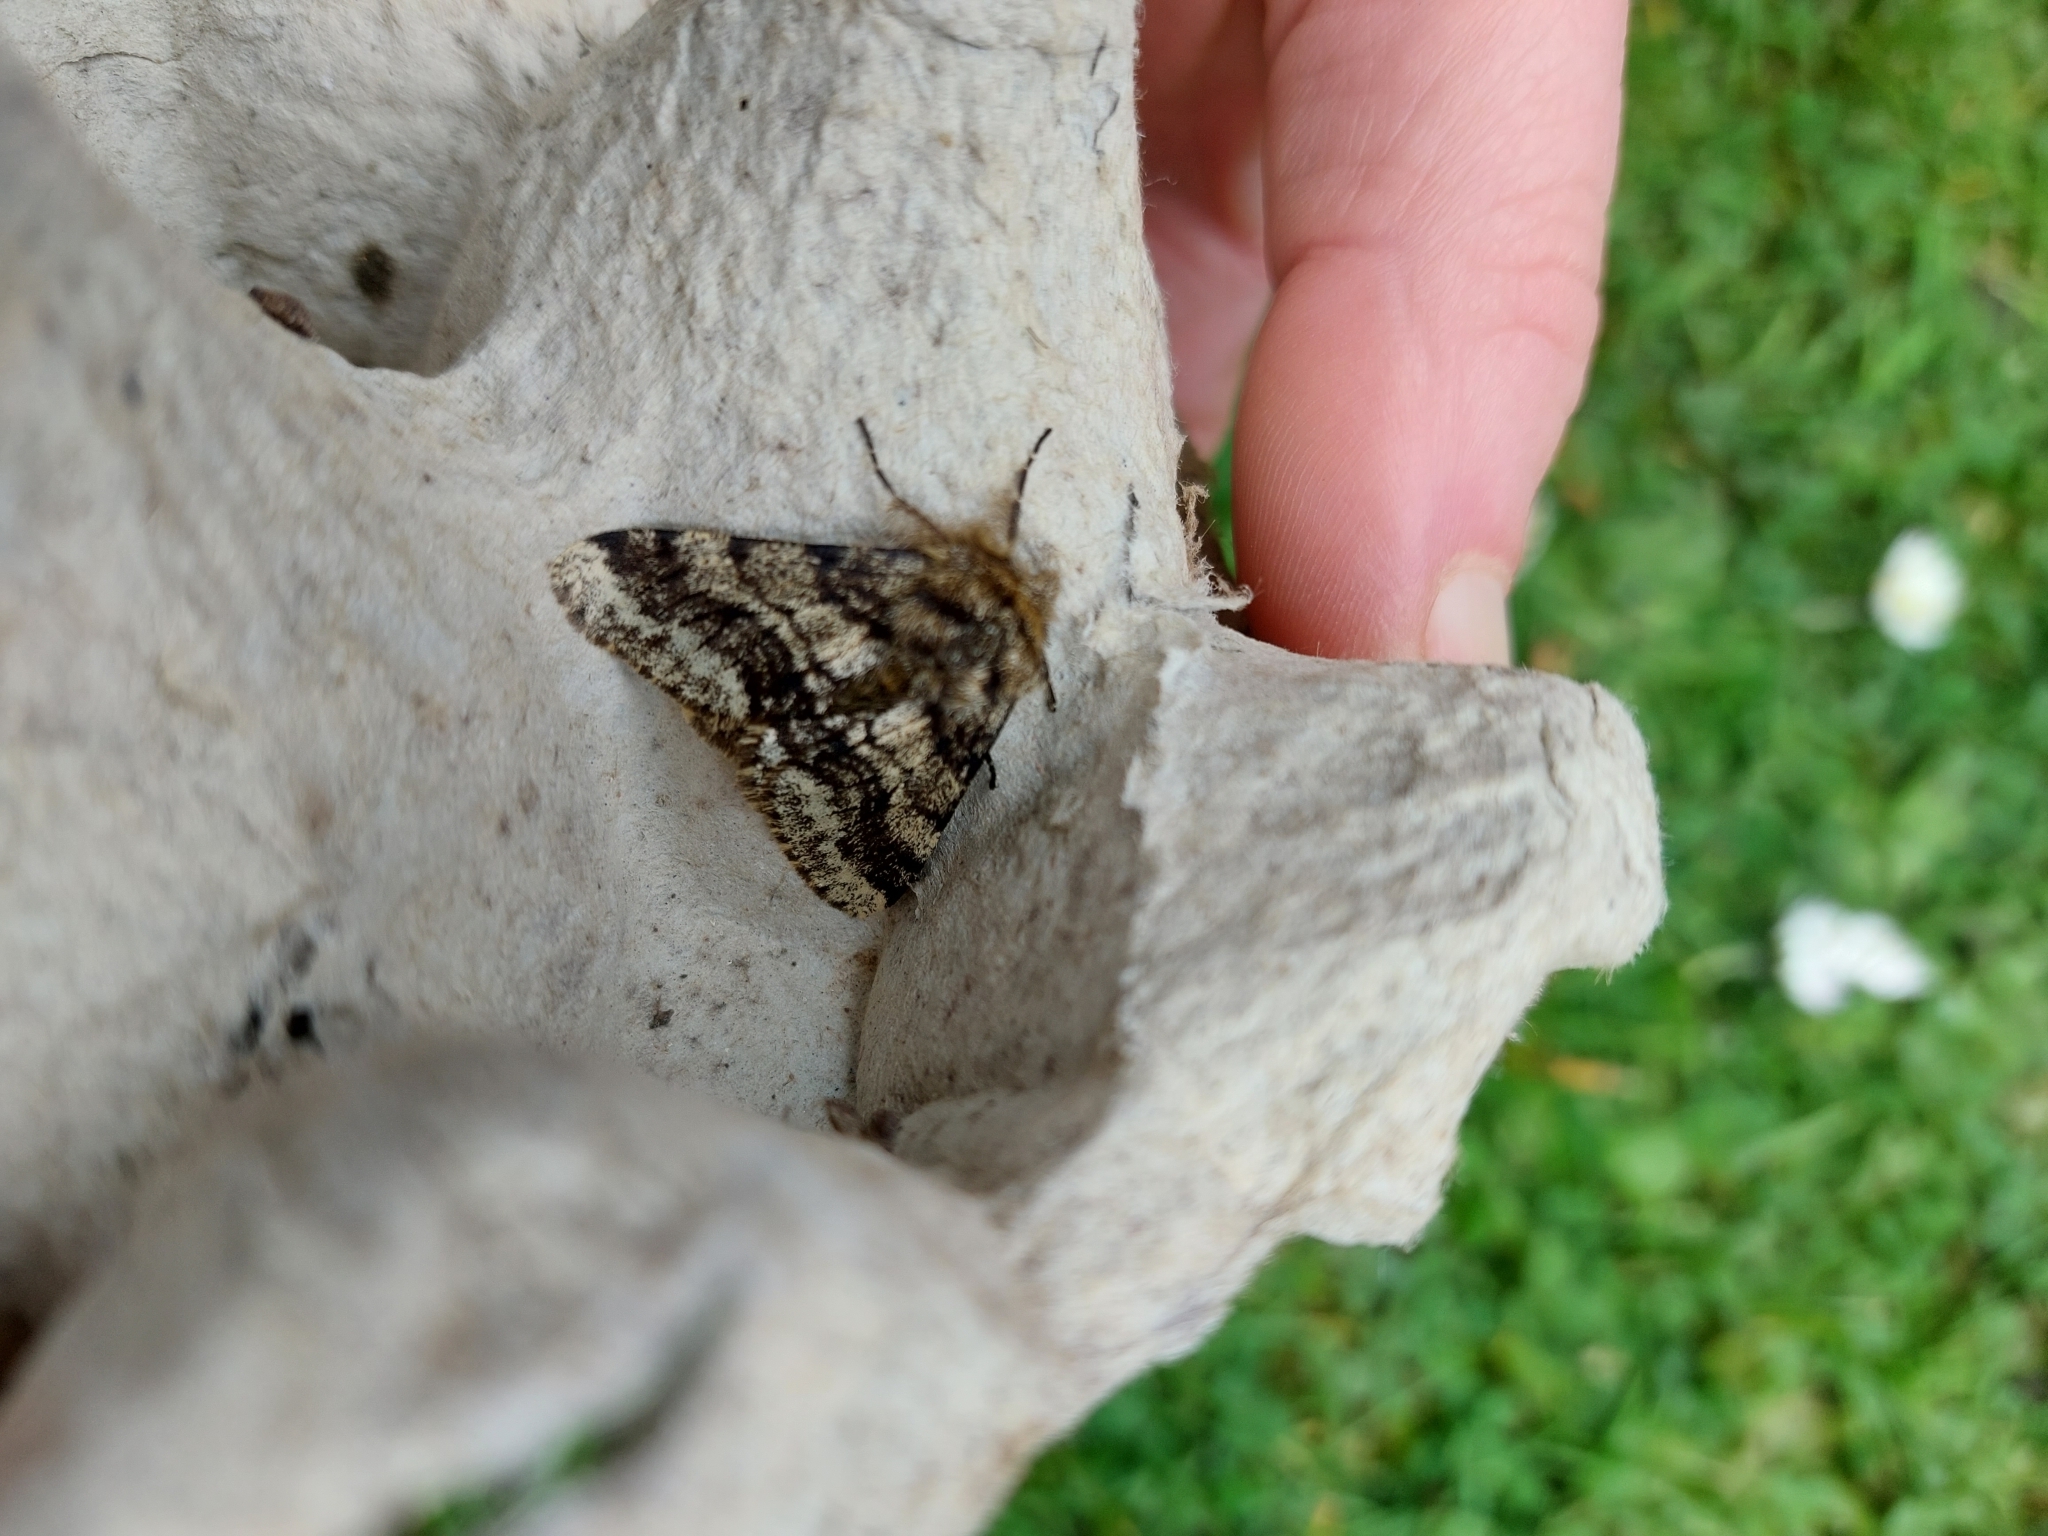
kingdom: Animalia
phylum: Arthropoda
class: Insecta
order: Lepidoptera
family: Geometridae
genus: Lycia
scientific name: Lycia hirtaria
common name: Brindled beauty
